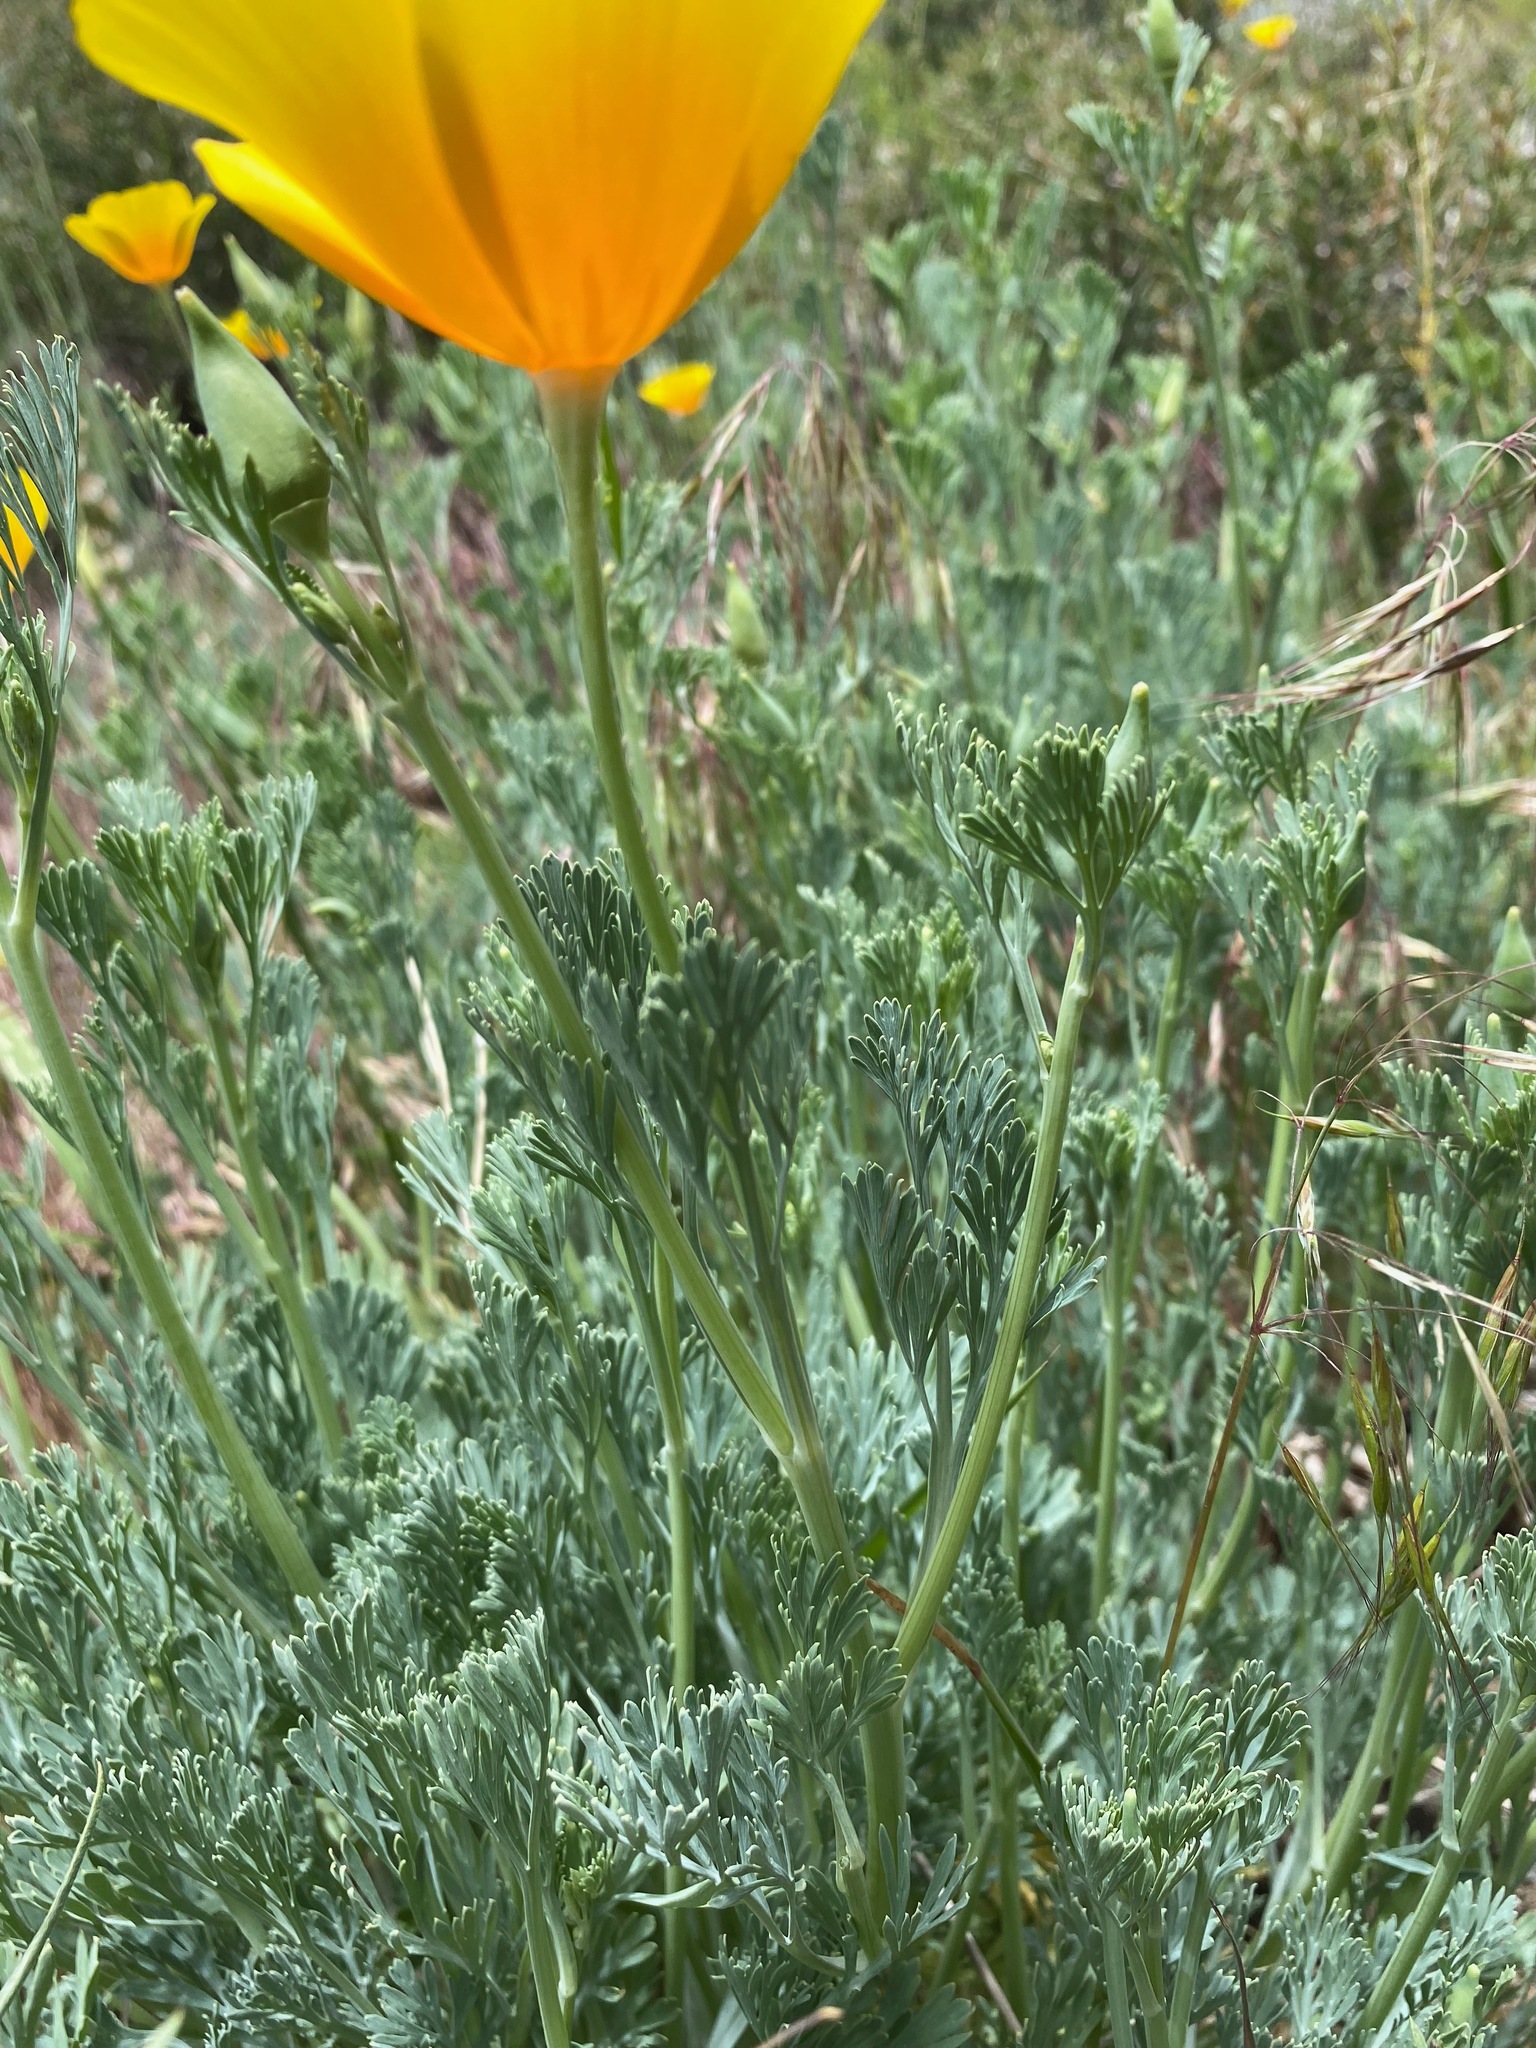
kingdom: Plantae
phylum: Tracheophyta
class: Magnoliopsida
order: Ranunculales
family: Papaveraceae
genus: Eschscholzia
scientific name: Eschscholzia caespitosa
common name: Tufted california-poppy
